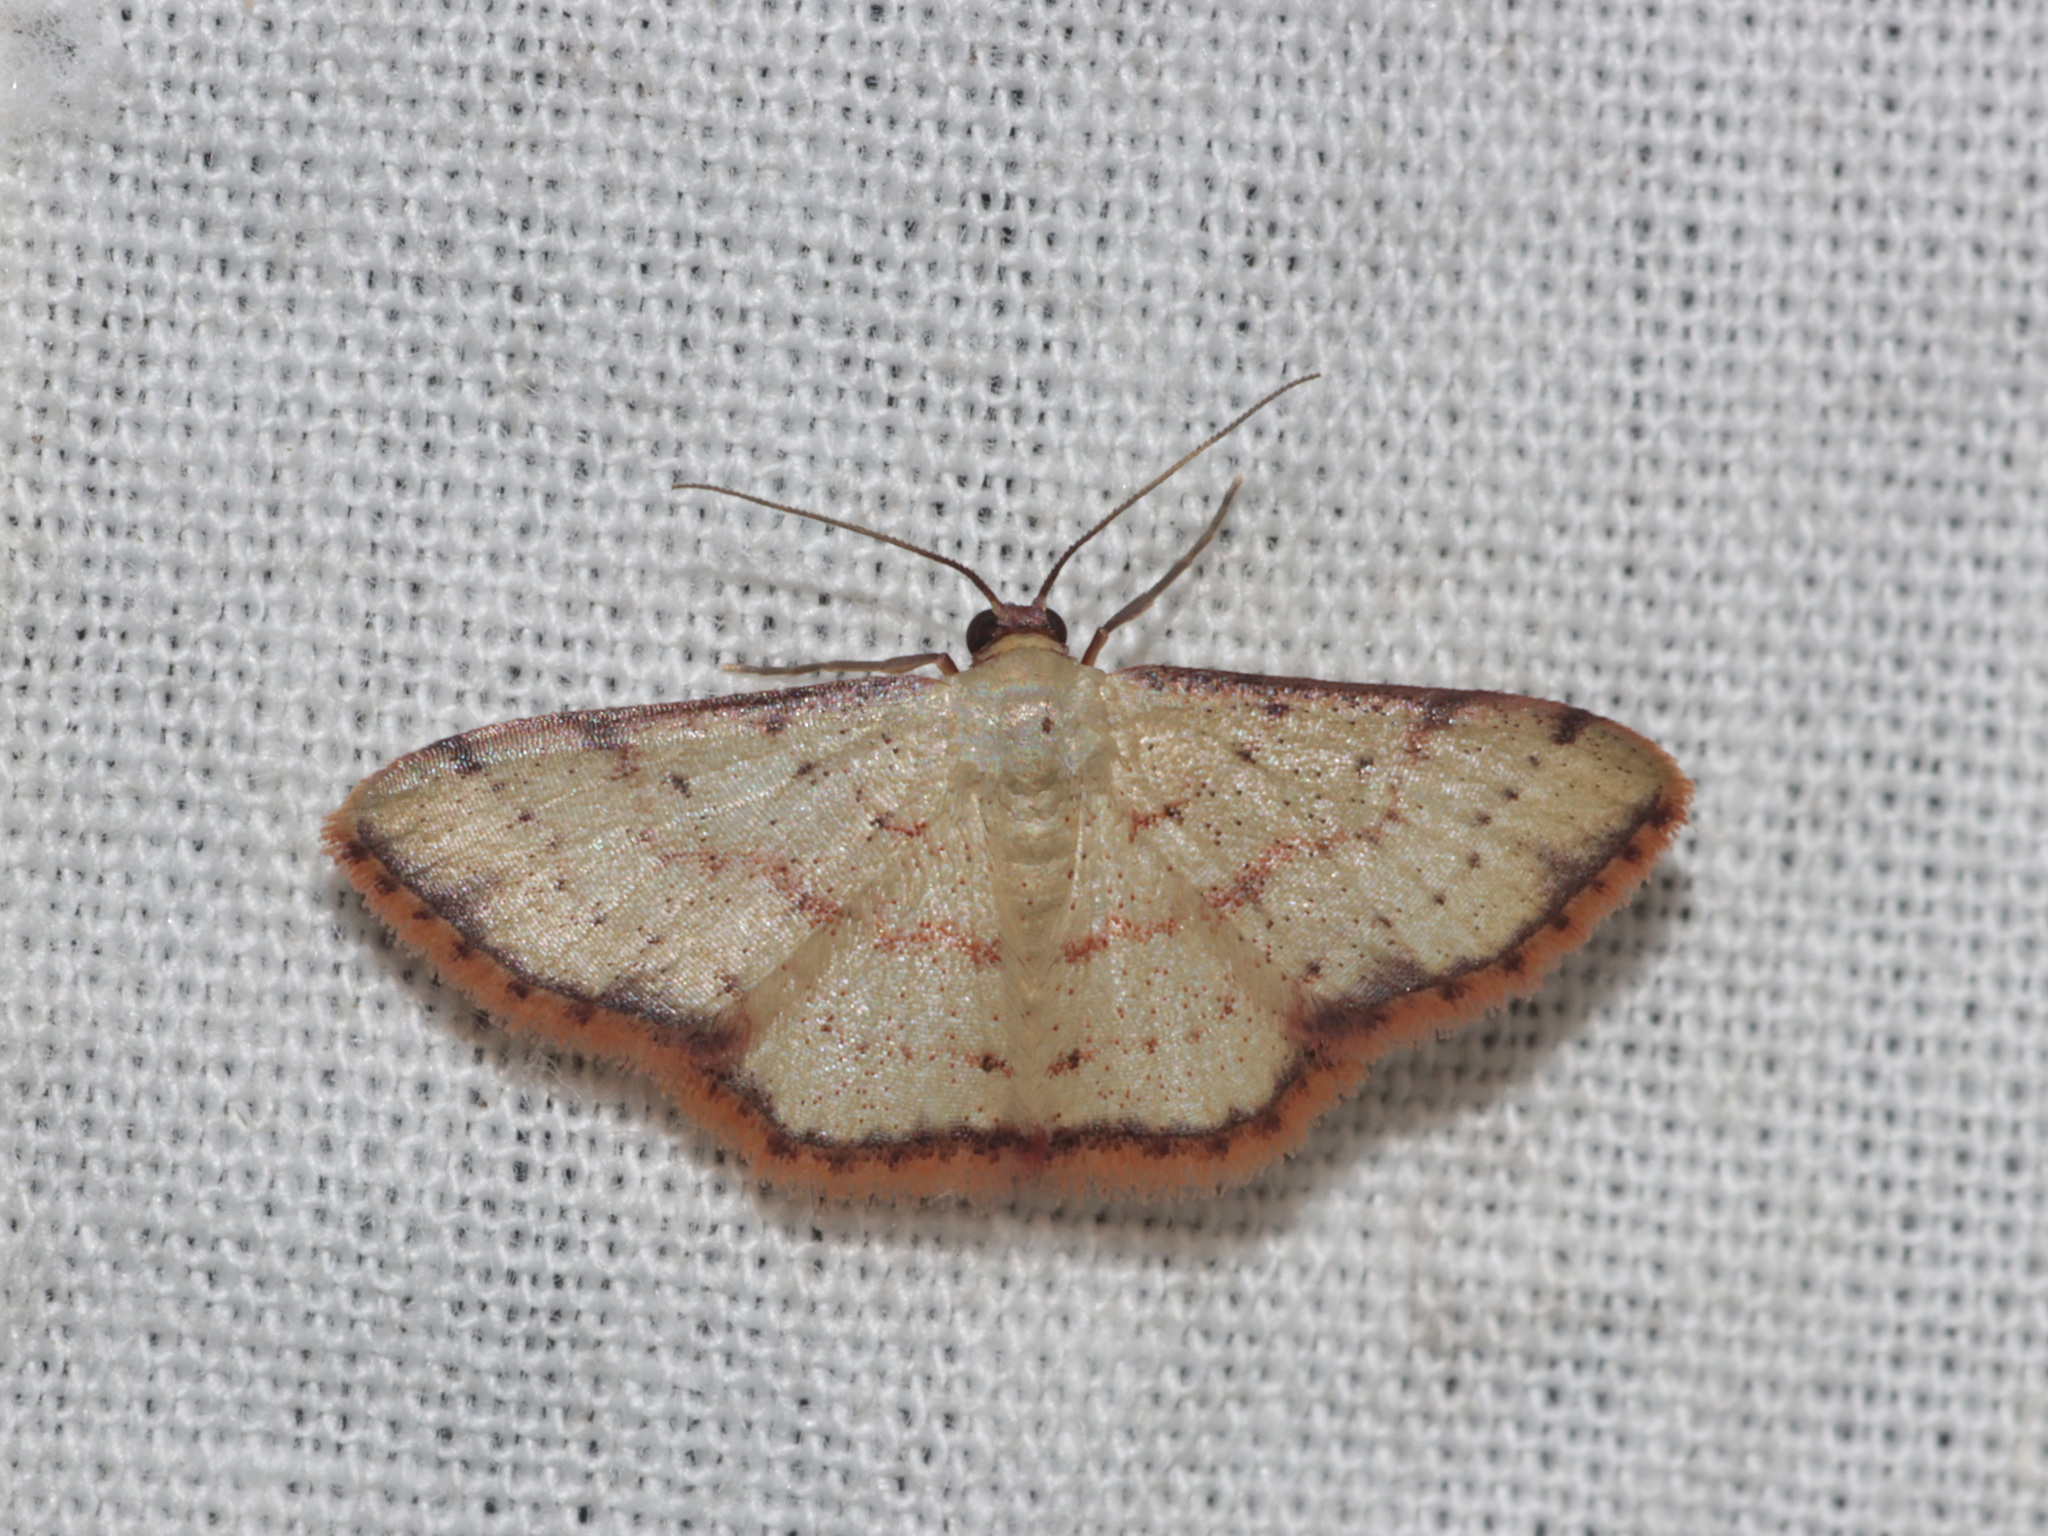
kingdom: Animalia
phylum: Arthropoda
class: Insecta
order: Lepidoptera
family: Geometridae
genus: Idaea
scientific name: Idaea craspedota
